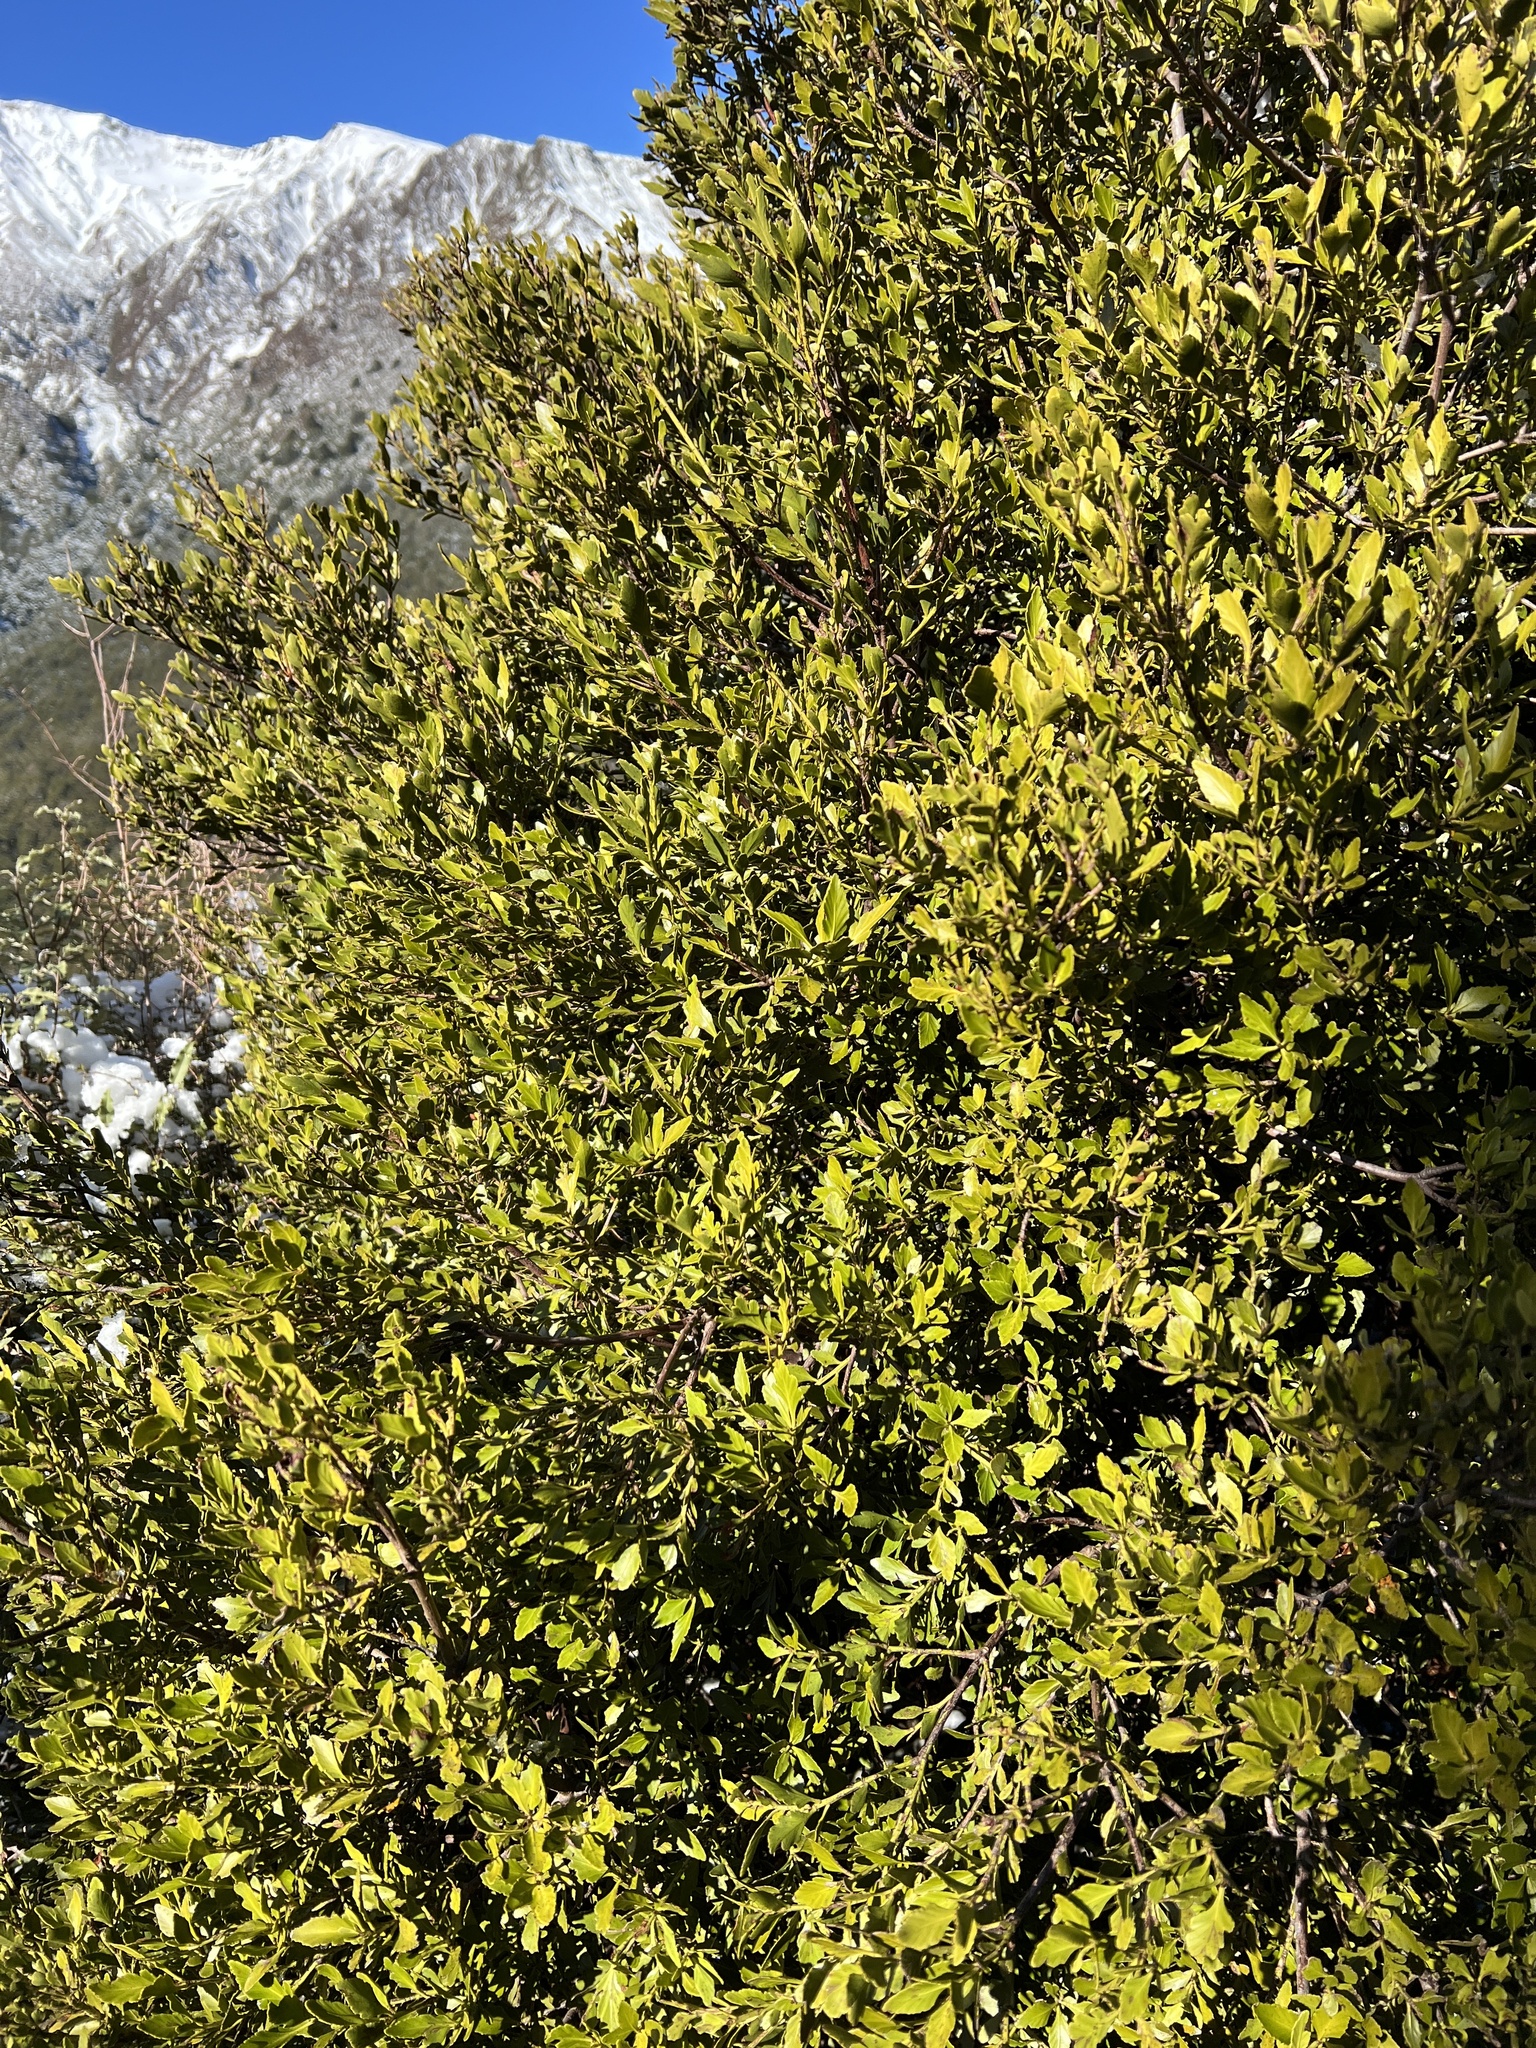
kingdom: Plantae
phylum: Tracheophyta
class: Pinopsida
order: Pinales
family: Phyllocladaceae
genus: Phyllocladus
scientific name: Phyllocladus trichomanoides
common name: Celery pine
